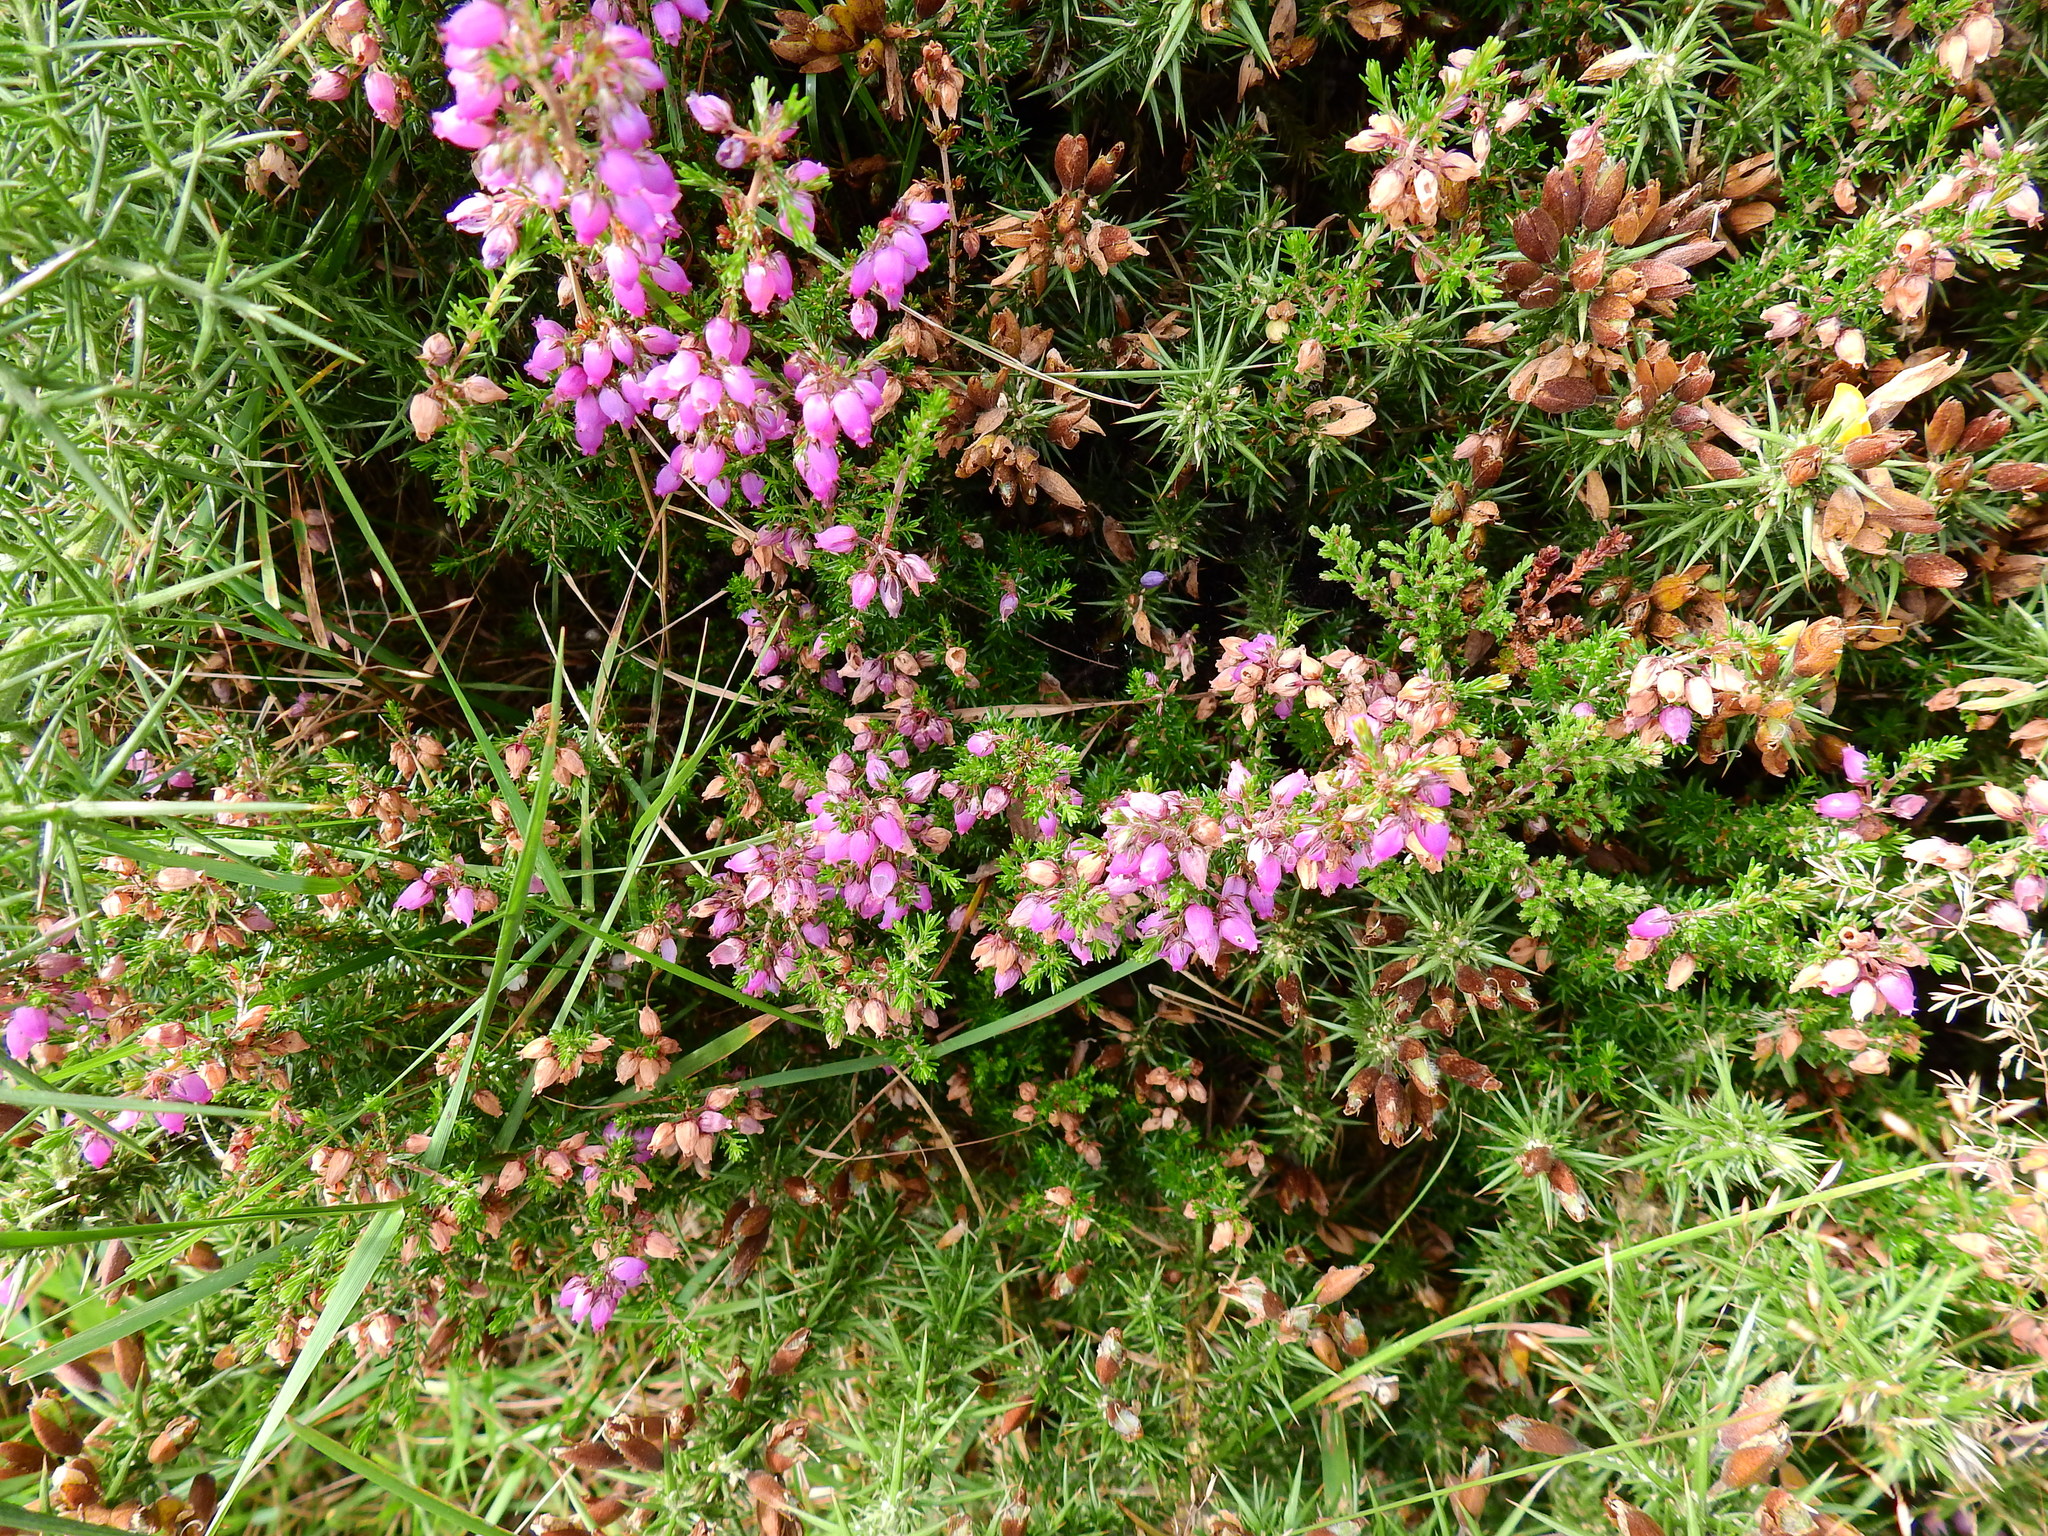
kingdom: Plantae
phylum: Tracheophyta
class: Magnoliopsida
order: Ericales
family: Ericaceae
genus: Erica
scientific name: Erica cinerea
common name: Bell heather
